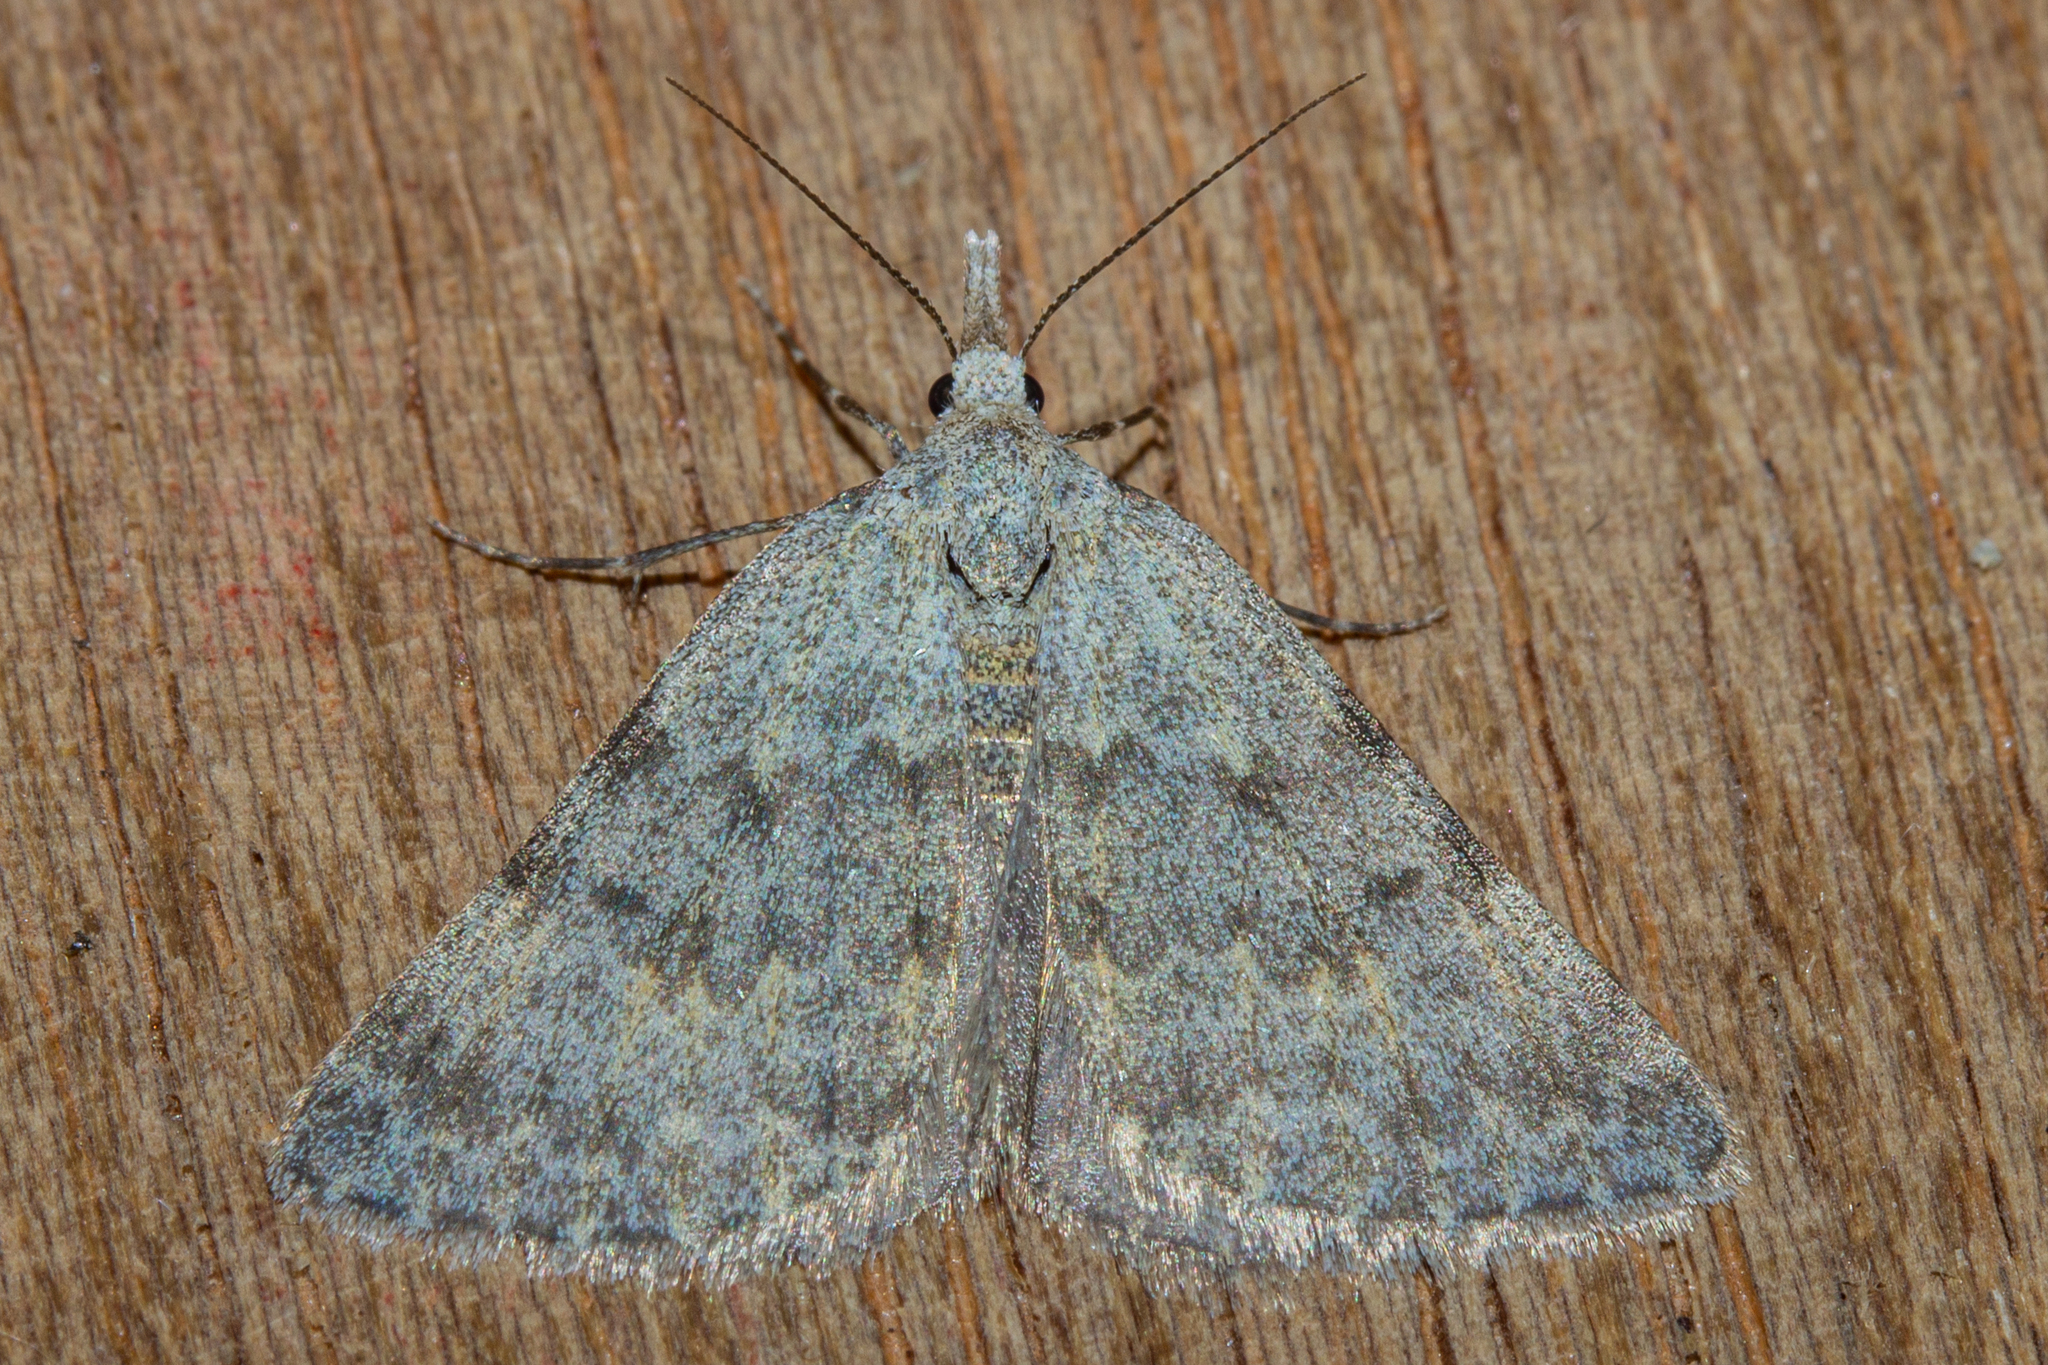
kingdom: Animalia
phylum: Arthropoda
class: Insecta
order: Lepidoptera
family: Geometridae
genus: Dichromodes
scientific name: Dichromodes sphaeriata
